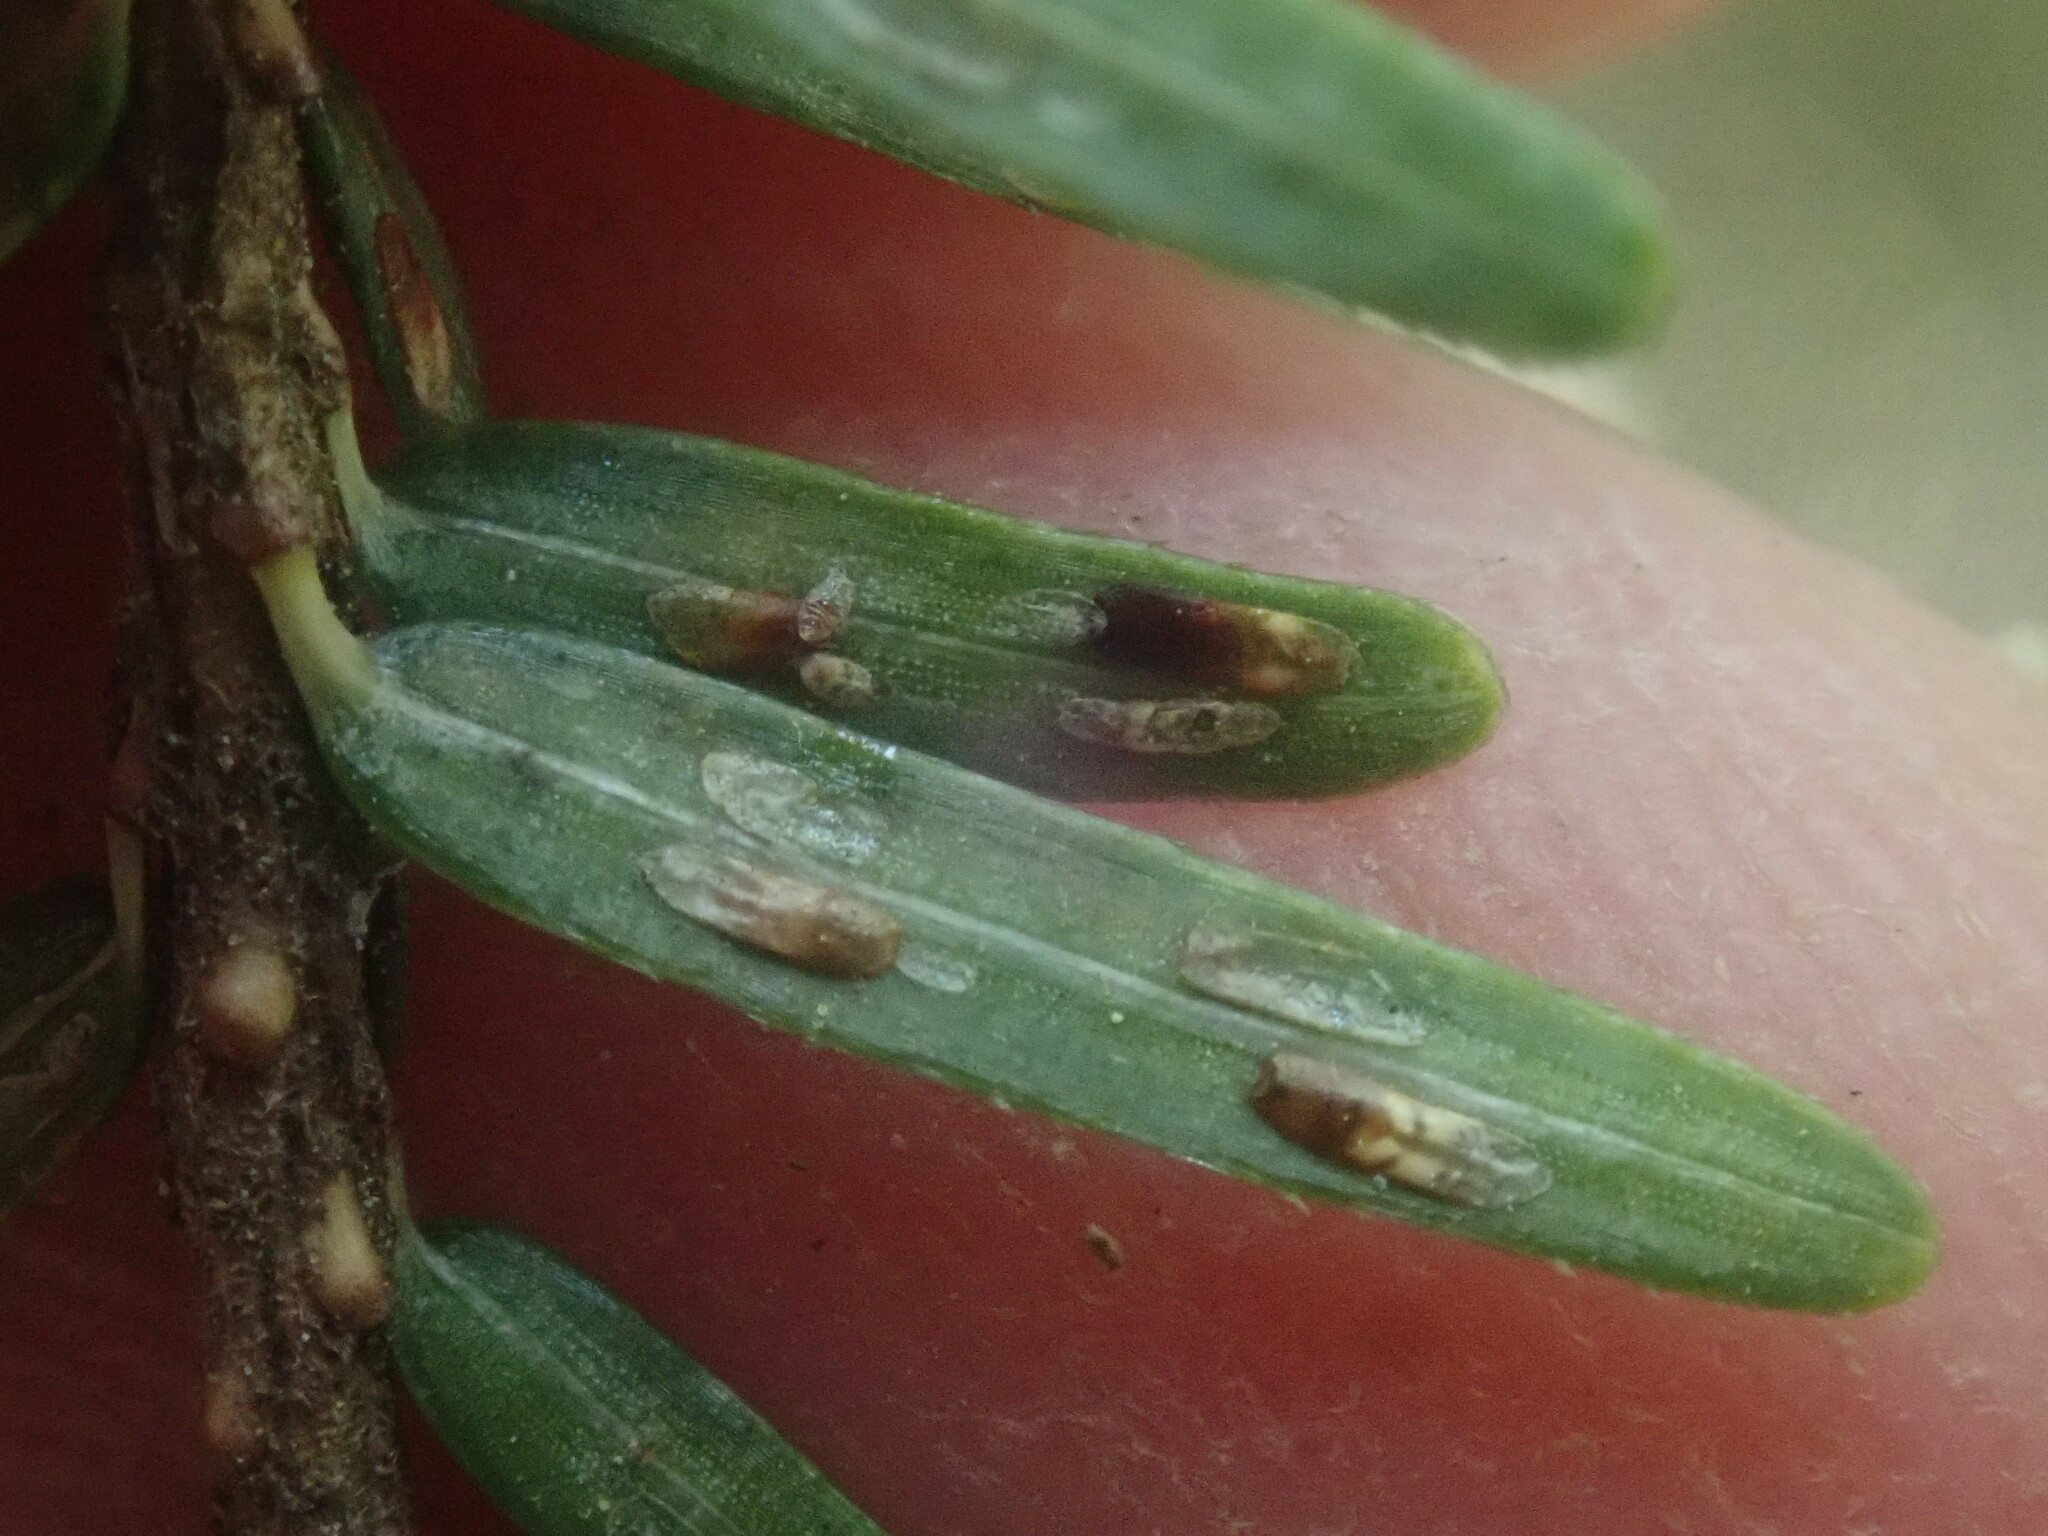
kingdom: Animalia
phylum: Arthropoda
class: Insecta
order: Hemiptera
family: Diaspididae
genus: Fiorinia
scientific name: Fiorinia externa
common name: Elongate hemlock scale
